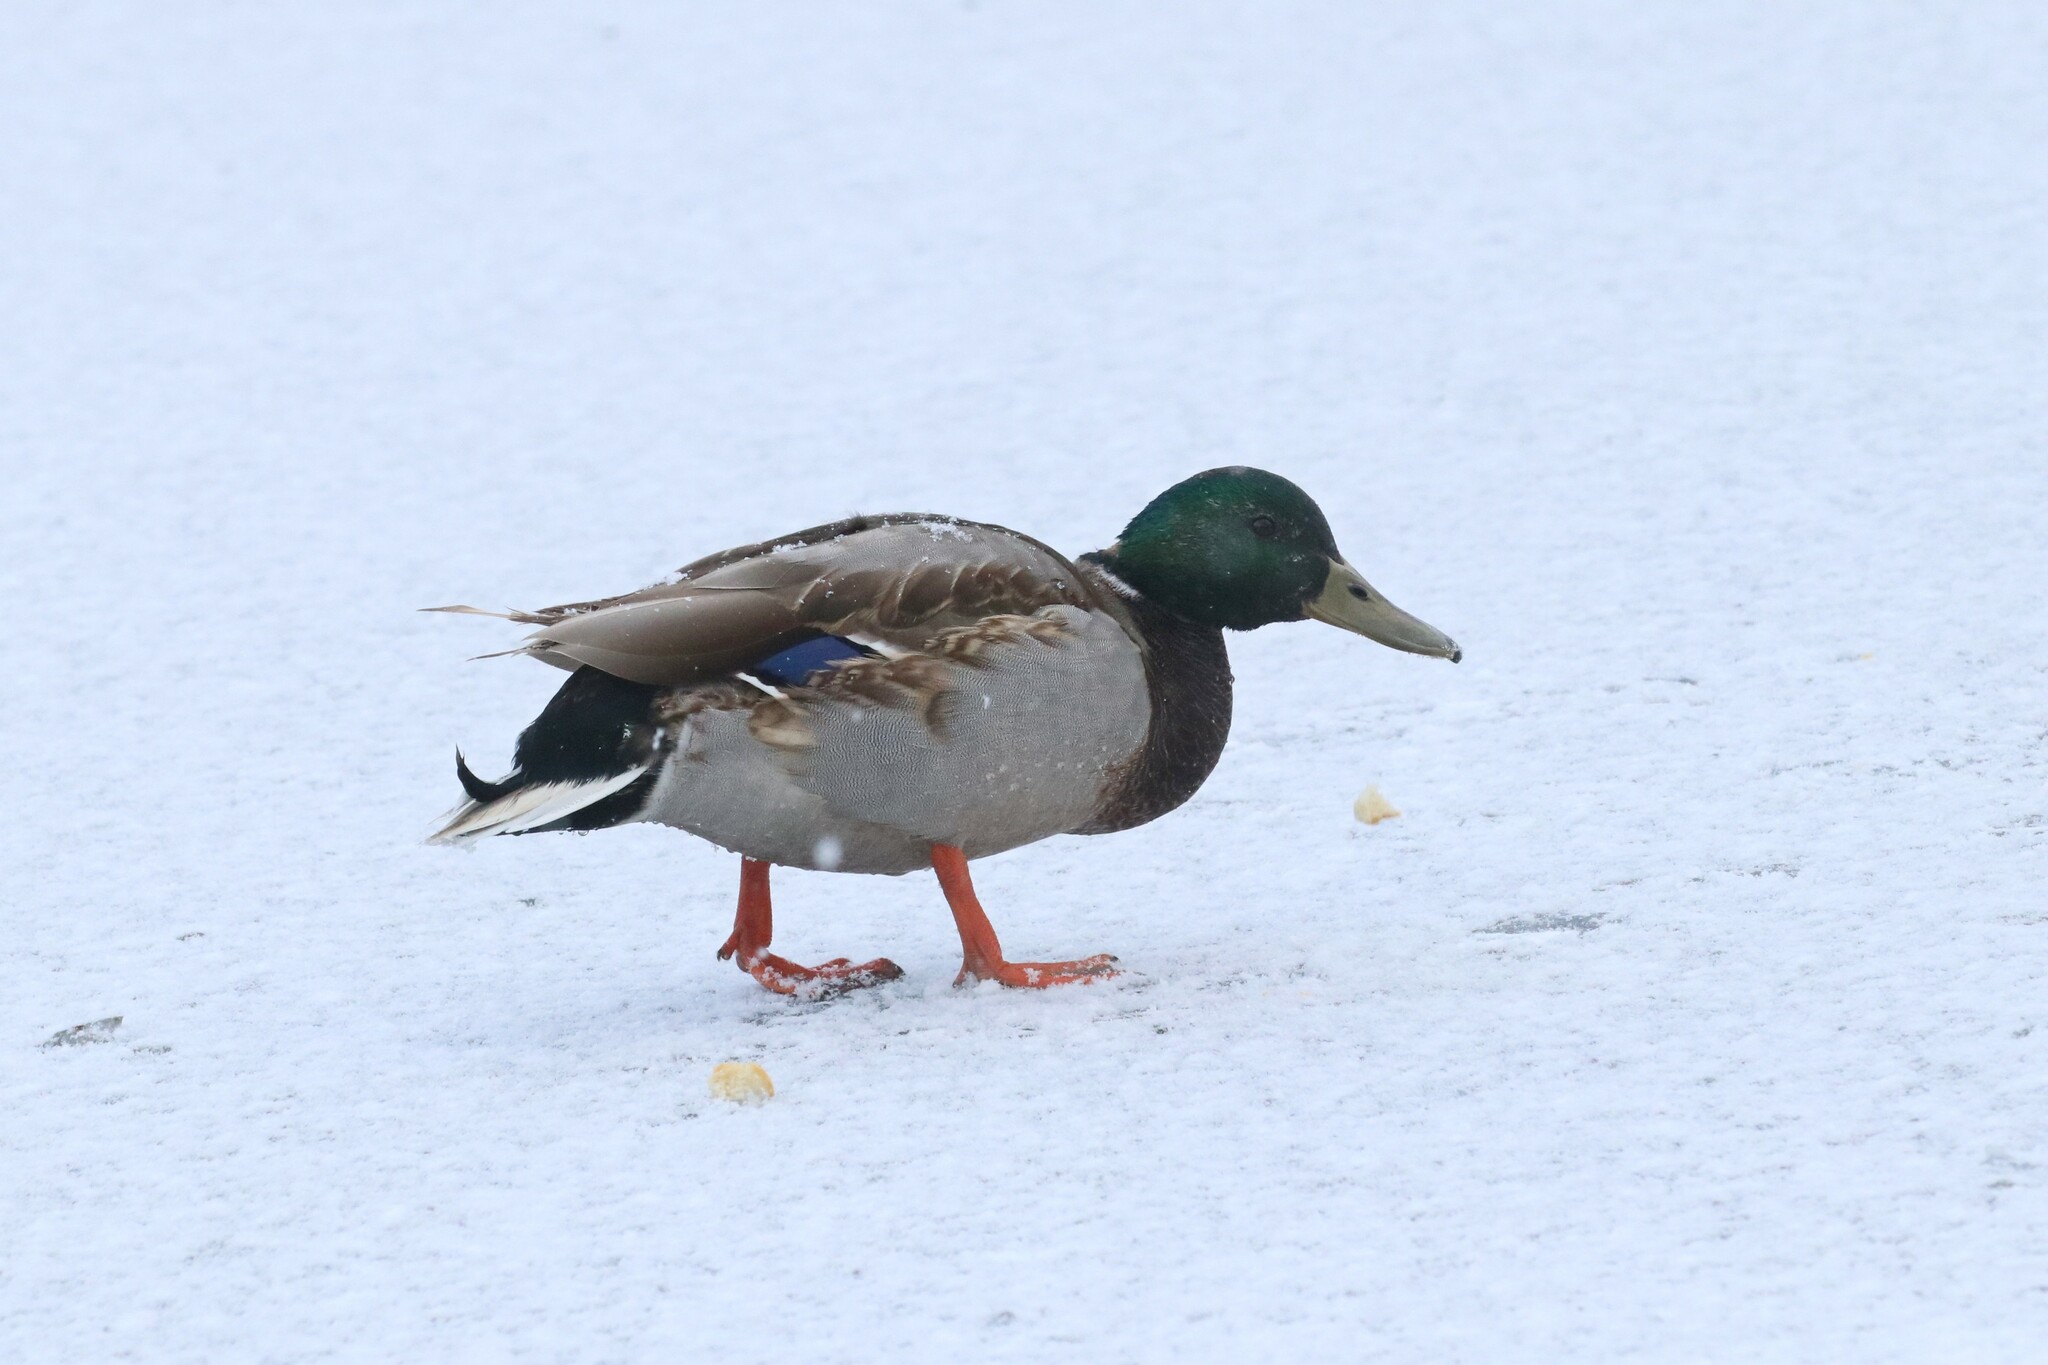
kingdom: Animalia
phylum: Chordata
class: Aves
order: Anseriformes
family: Anatidae
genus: Anas
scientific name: Anas platyrhynchos
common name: Mallard
